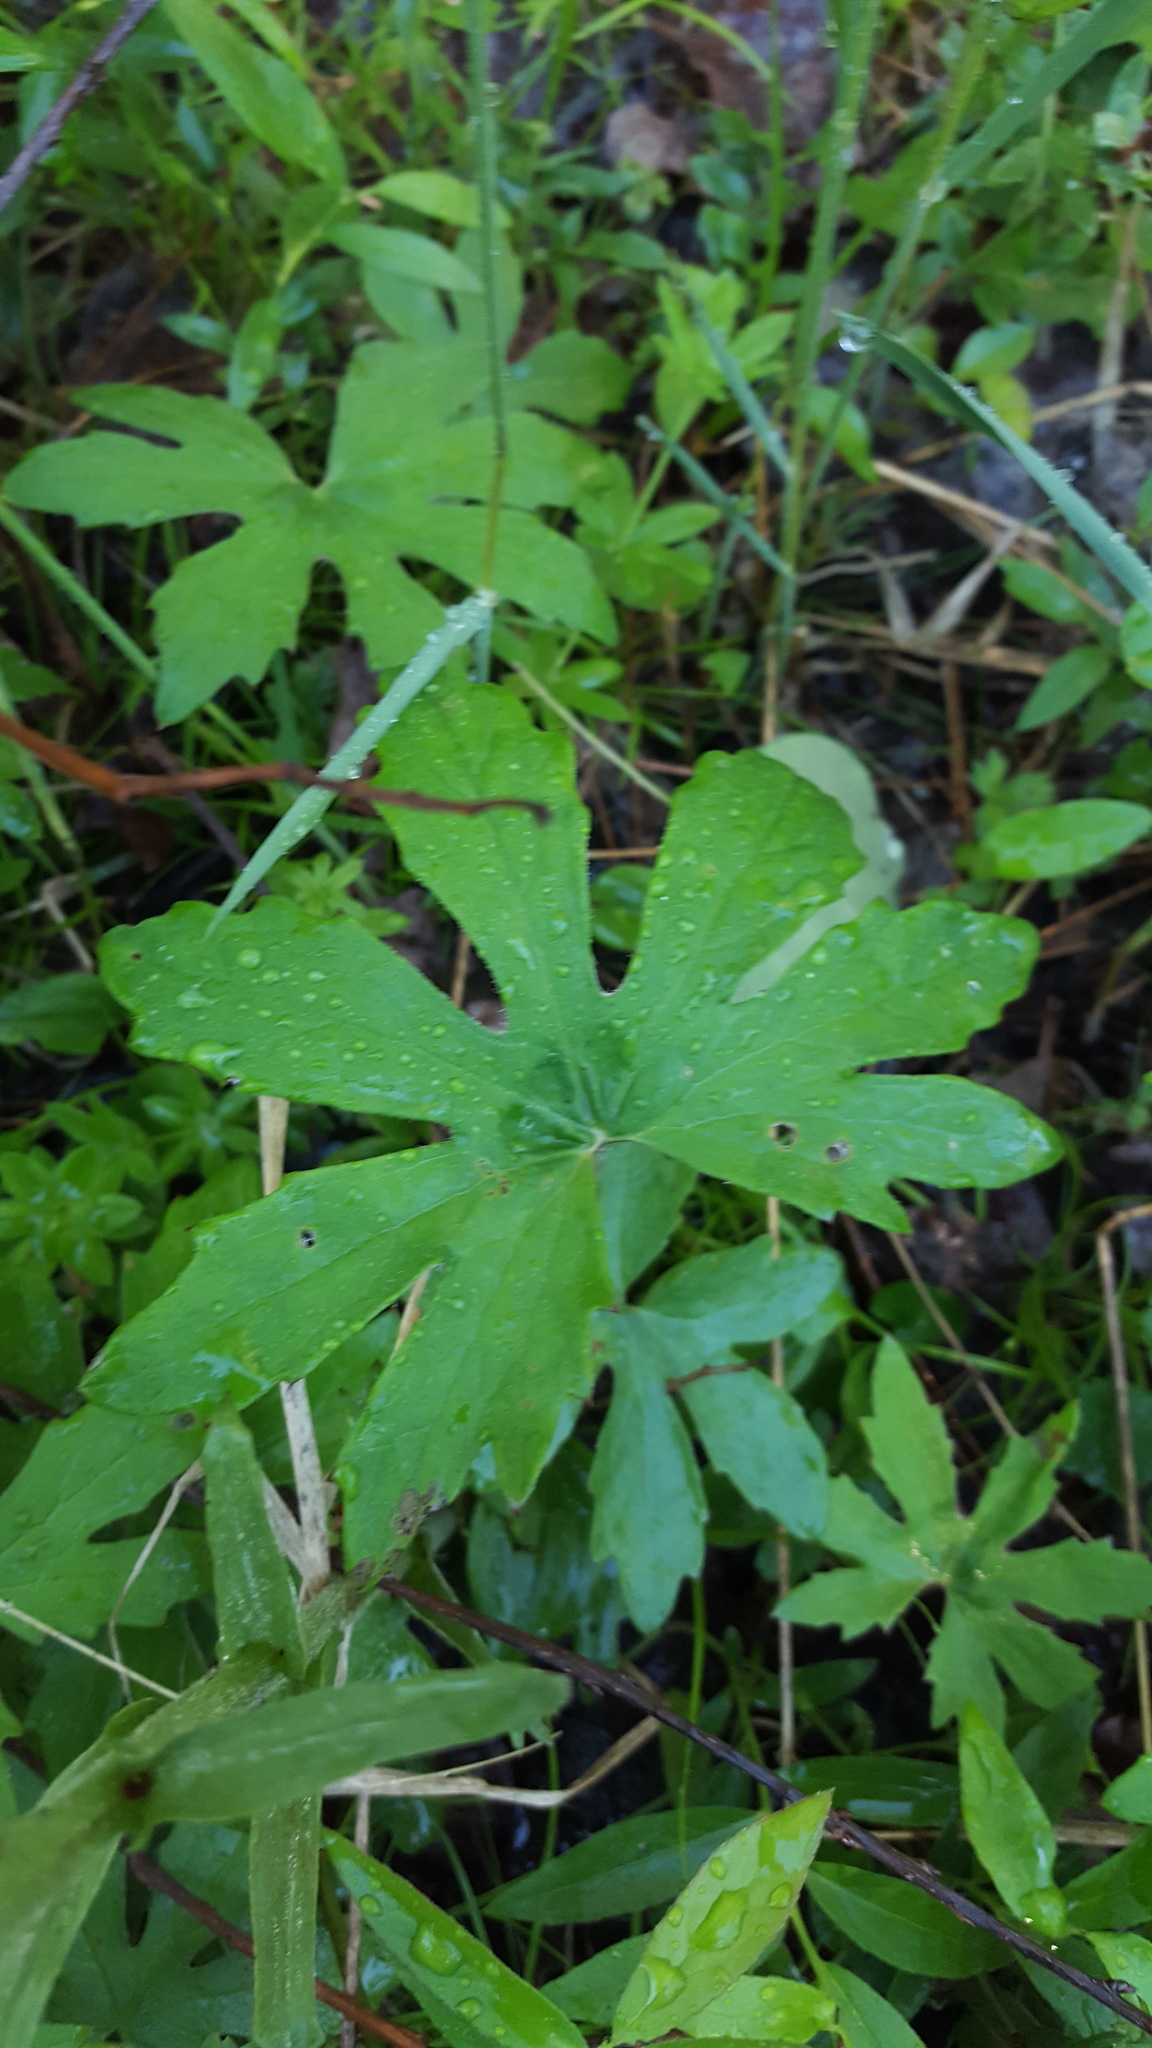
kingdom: Plantae
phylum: Tracheophyta
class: Magnoliopsida
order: Asterales
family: Asteraceae
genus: Petasites
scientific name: Petasites frigidus
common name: Arctic butterbur
